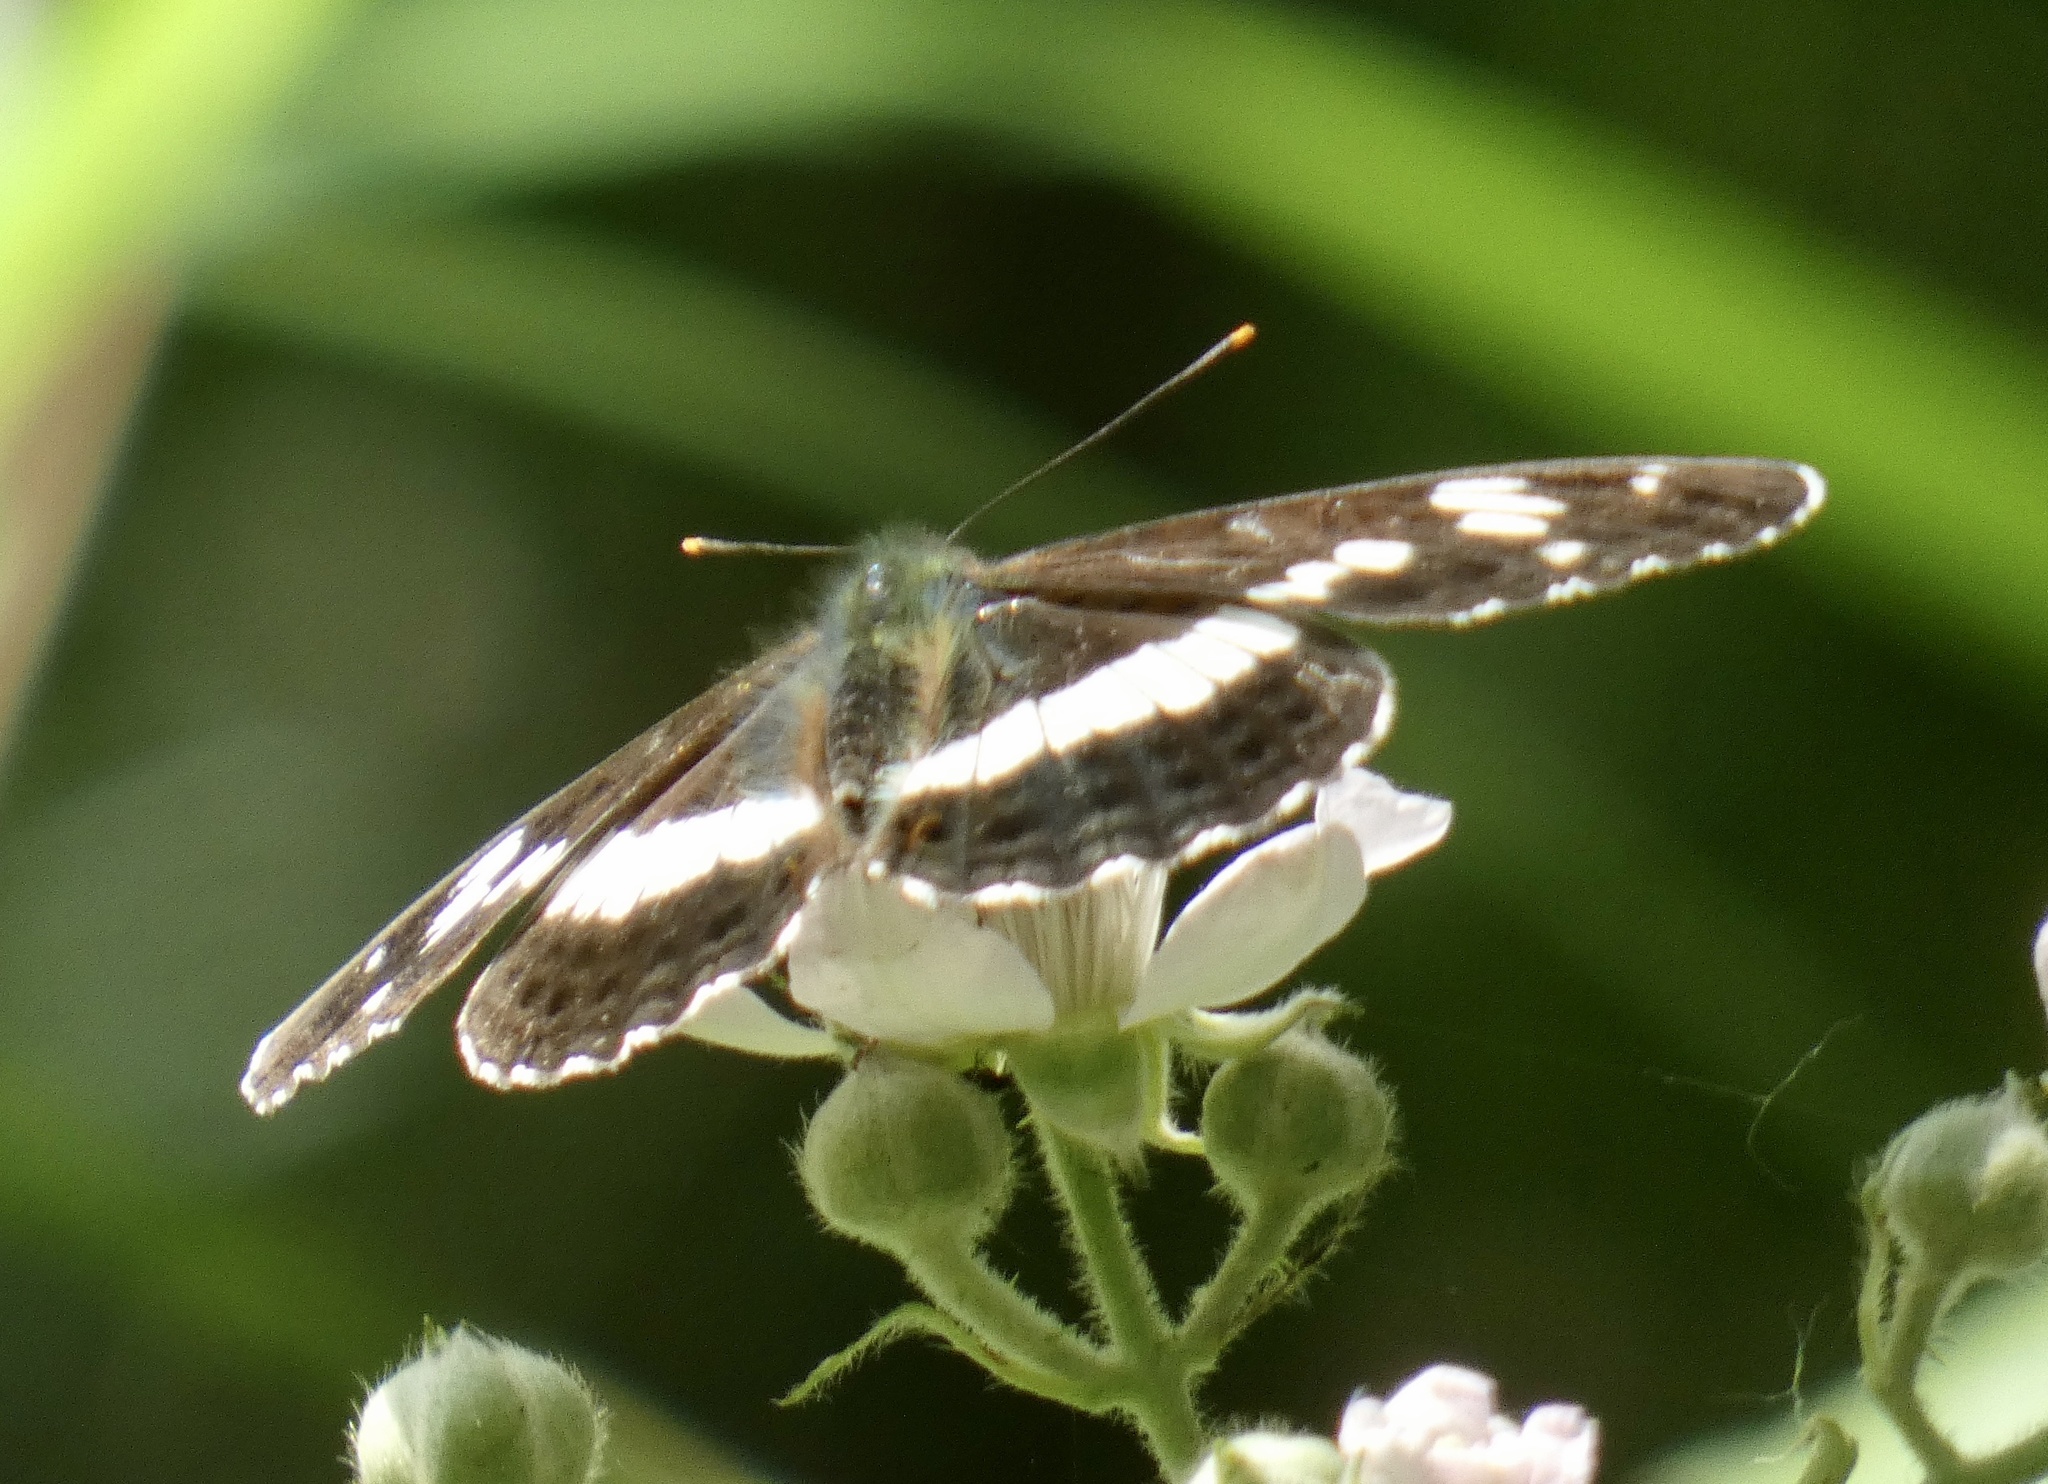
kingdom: Animalia
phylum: Arthropoda
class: Insecta
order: Lepidoptera
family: Nymphalidae
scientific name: Nymphalidae
